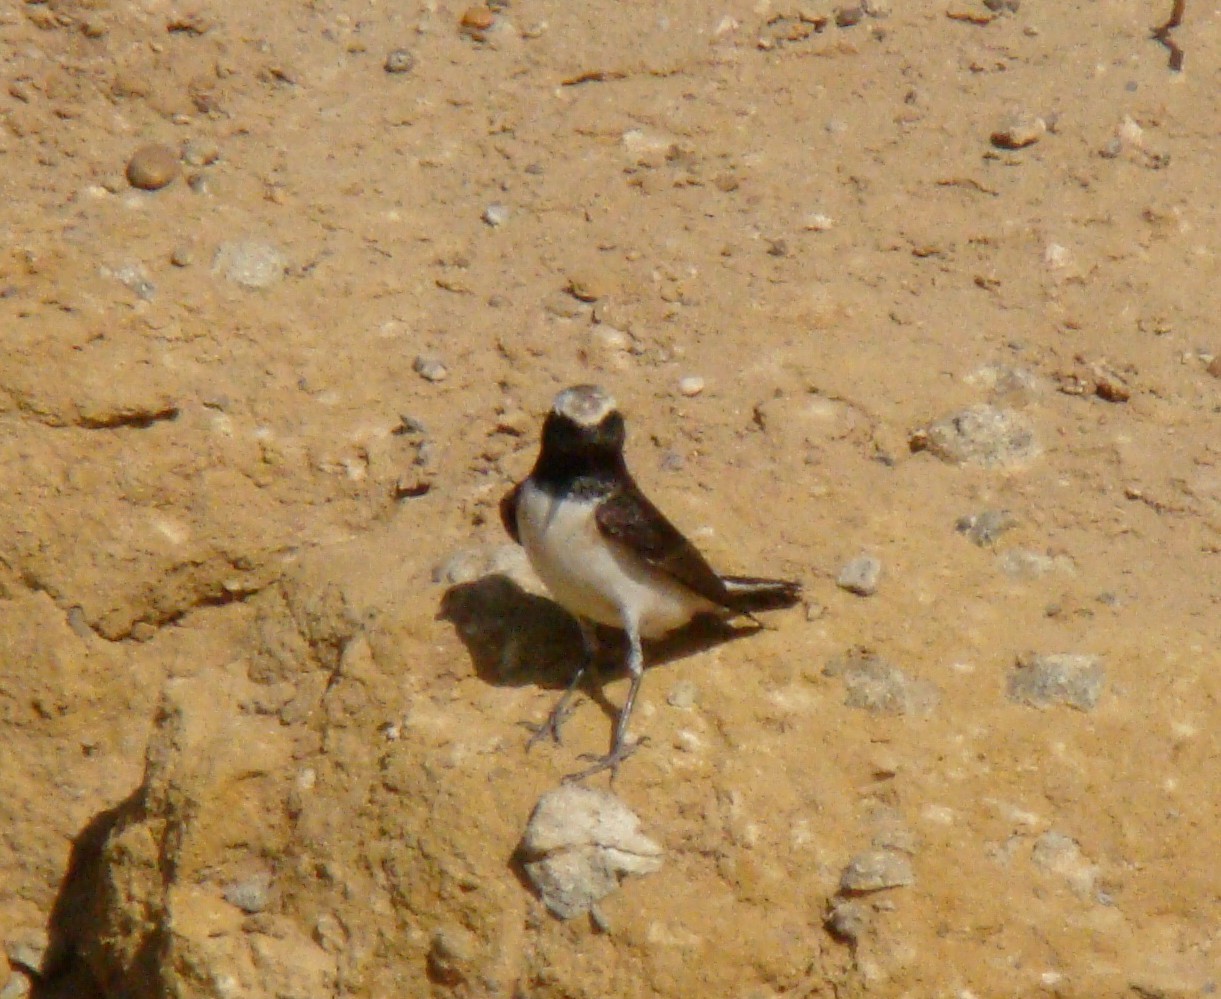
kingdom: Animalia
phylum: Chordata
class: Aves
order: Passeriformes
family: Muscicapidae
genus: Oenanthe
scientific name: Oenanthe pleschanka
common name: Pied wheatear
